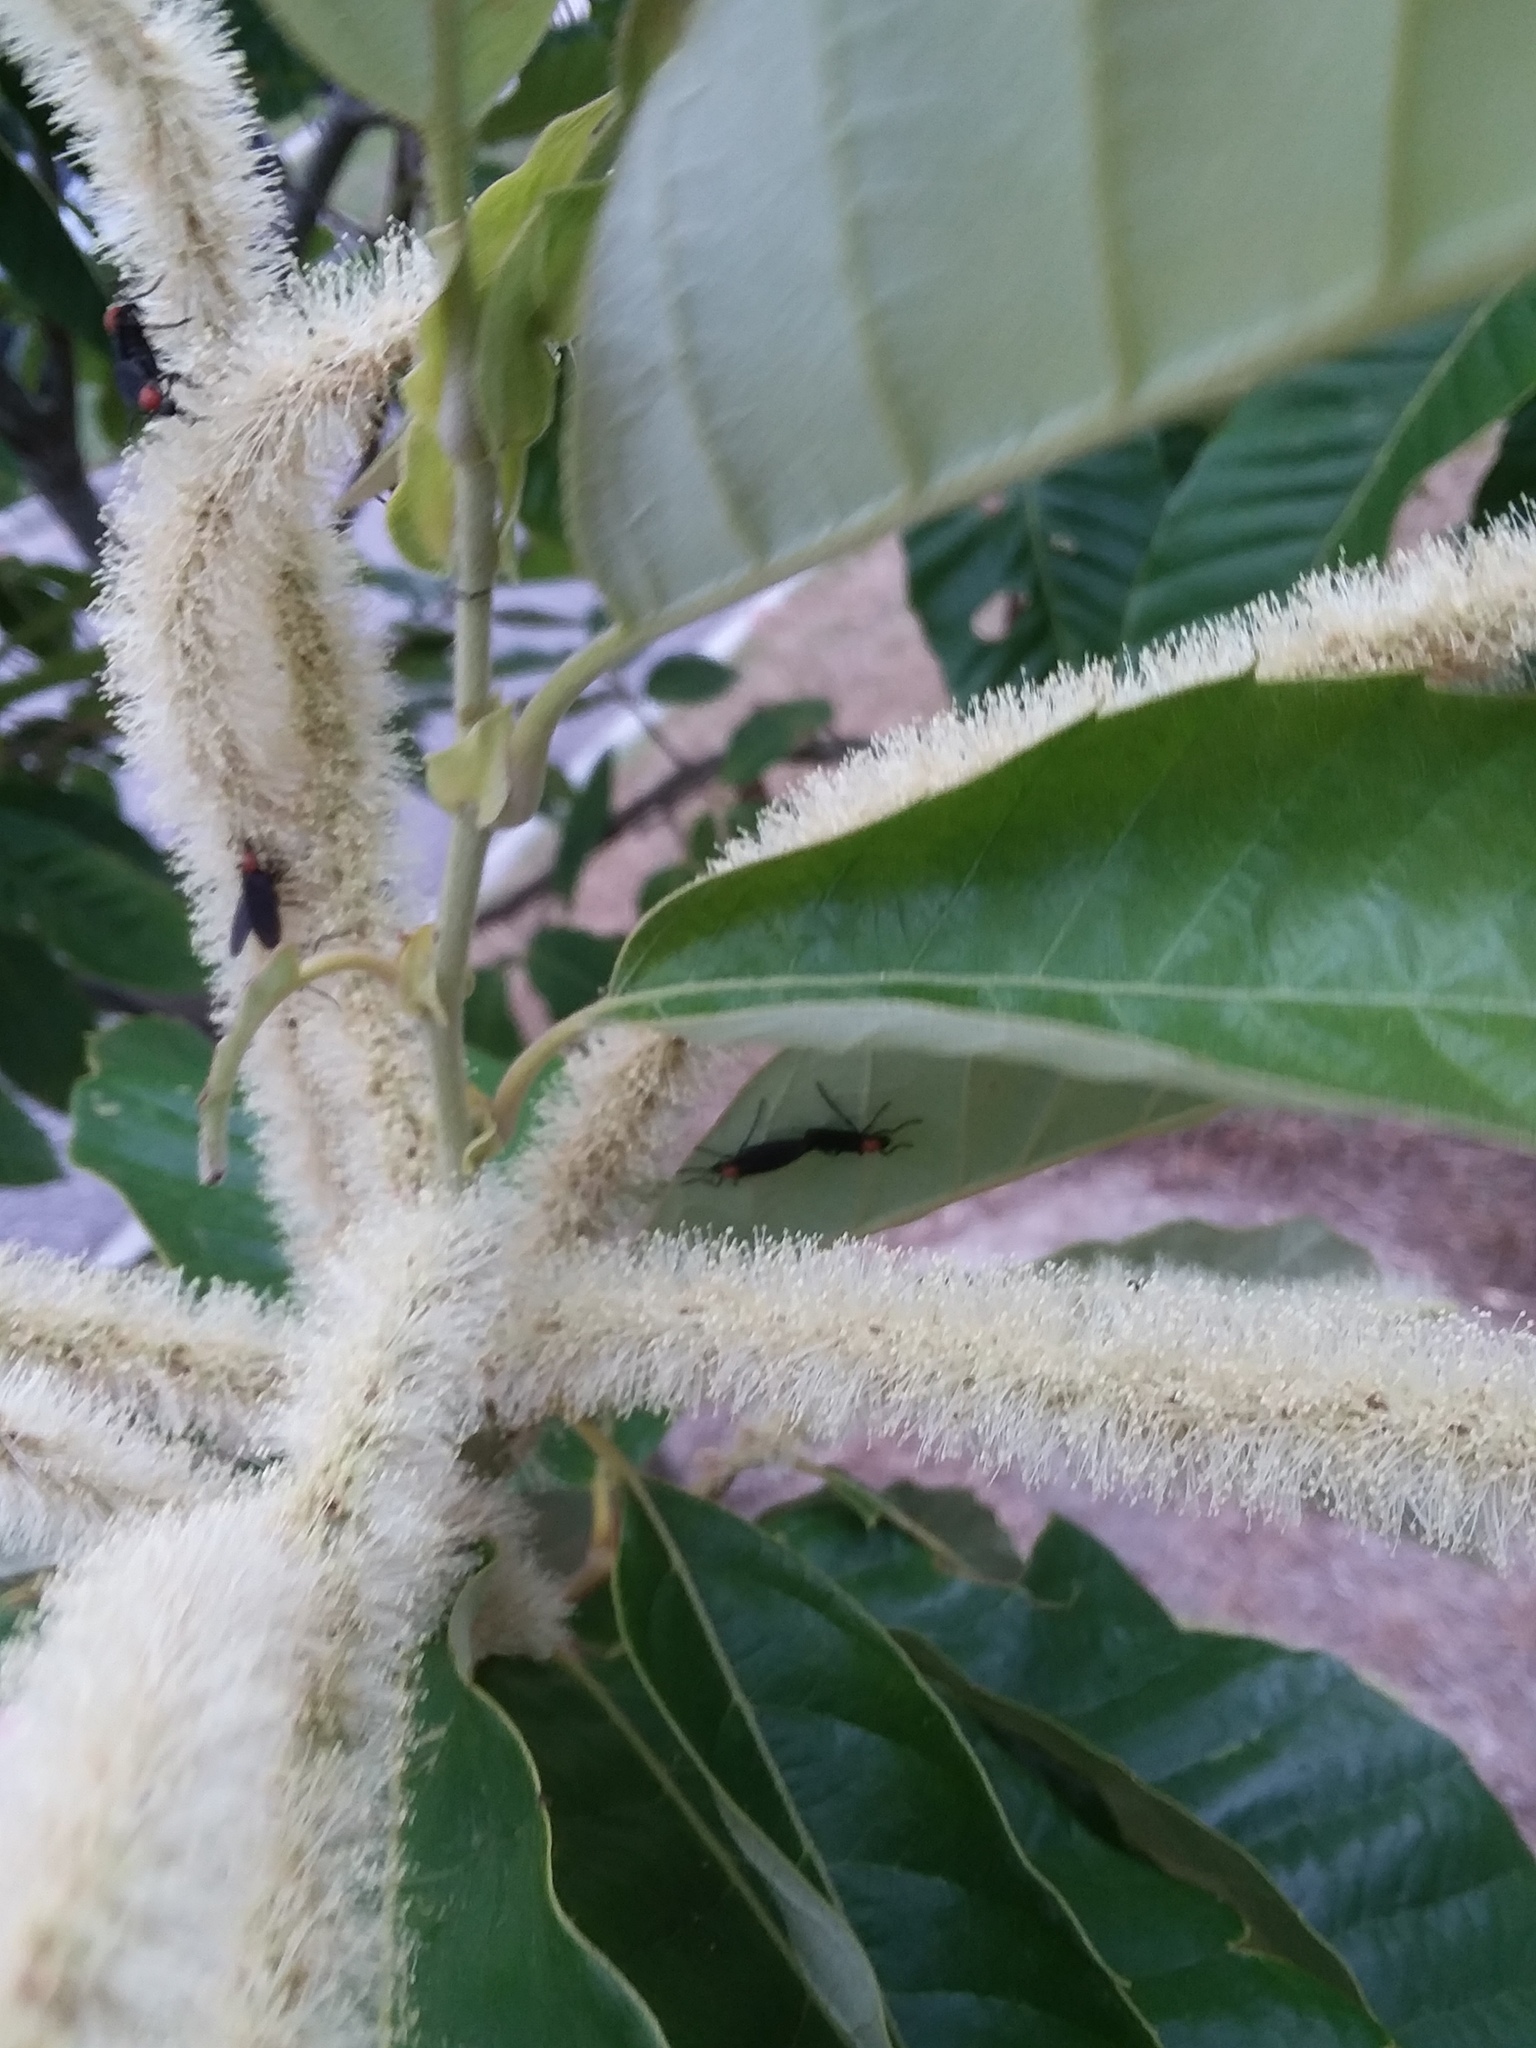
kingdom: Animalia
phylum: Arthropoda
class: Insecta
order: Diptera
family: Bibionidae
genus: Plecia
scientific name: Plecia nearctica
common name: March fly
